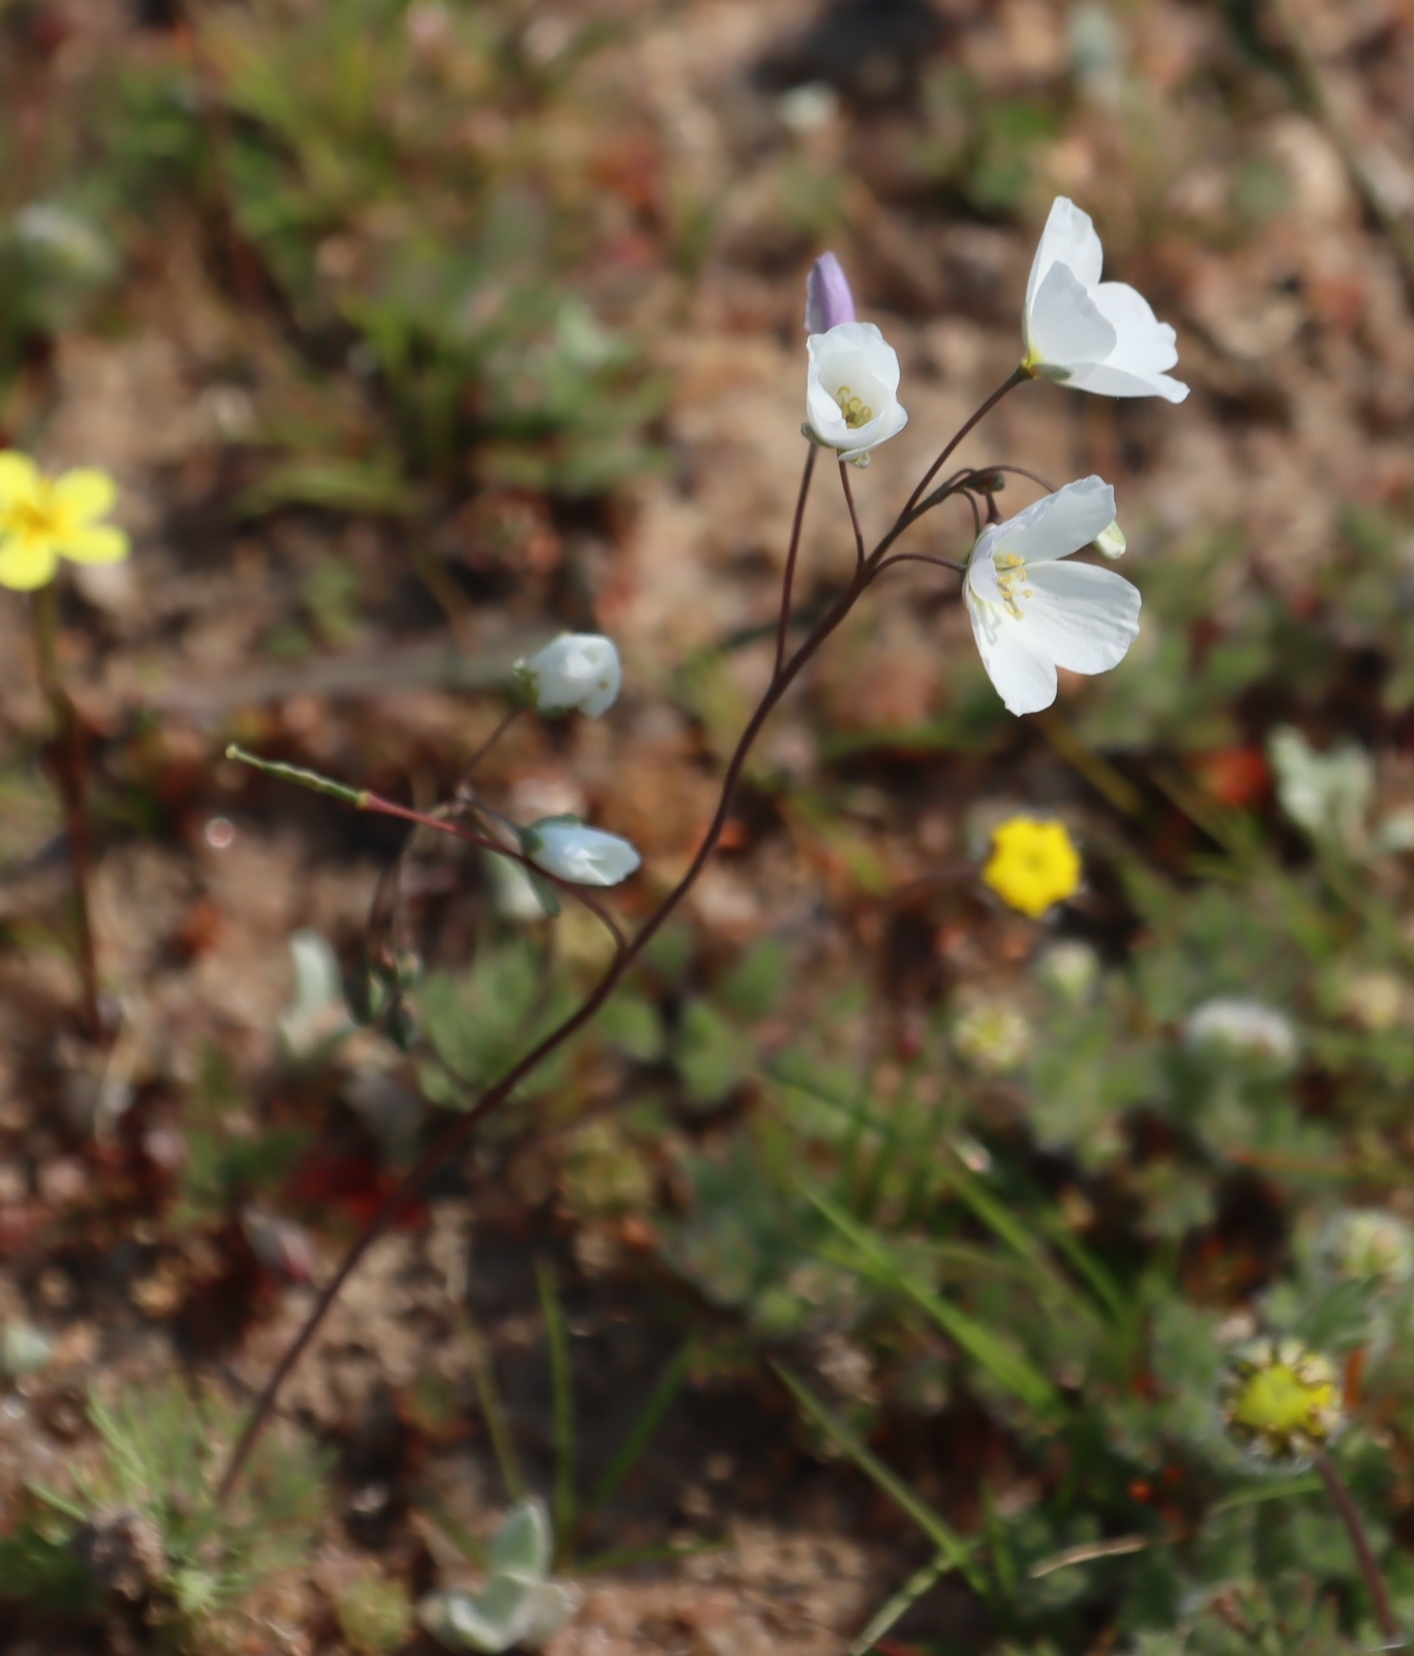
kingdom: Plantae
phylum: Tracheophyta
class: Magnoliopsida
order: Brassicales
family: Brassicaceae
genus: Heliophila
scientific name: Heliophila seselifolia
